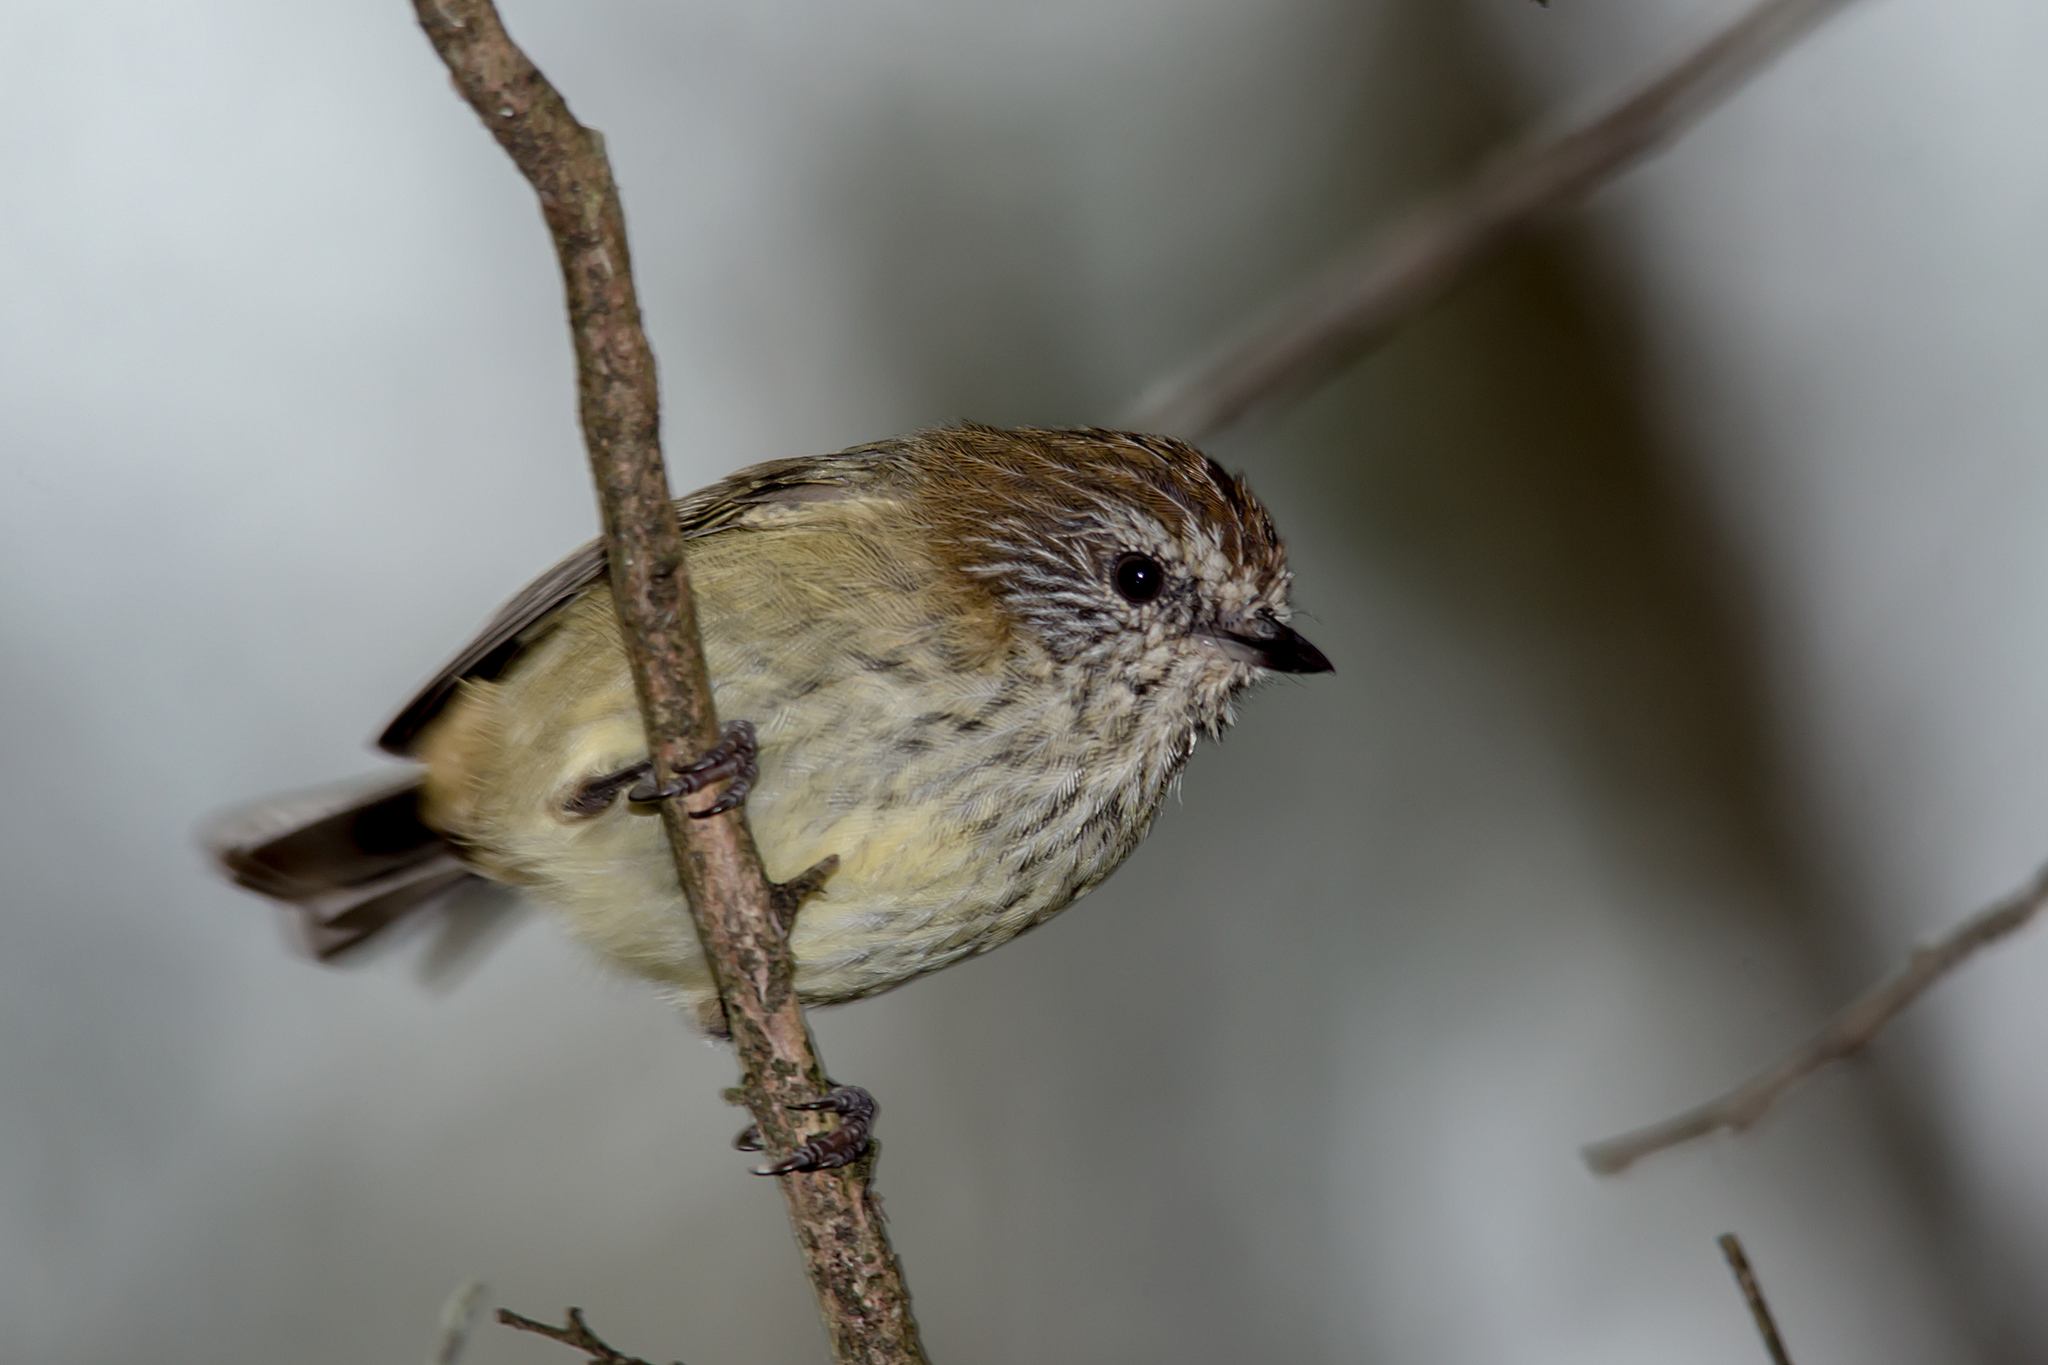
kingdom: Animalia
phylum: Chordata
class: Aves
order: Passeriformes
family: Acanthizidae
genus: Acanthiza
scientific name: Acanthiza lineata
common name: Striated thornbill
